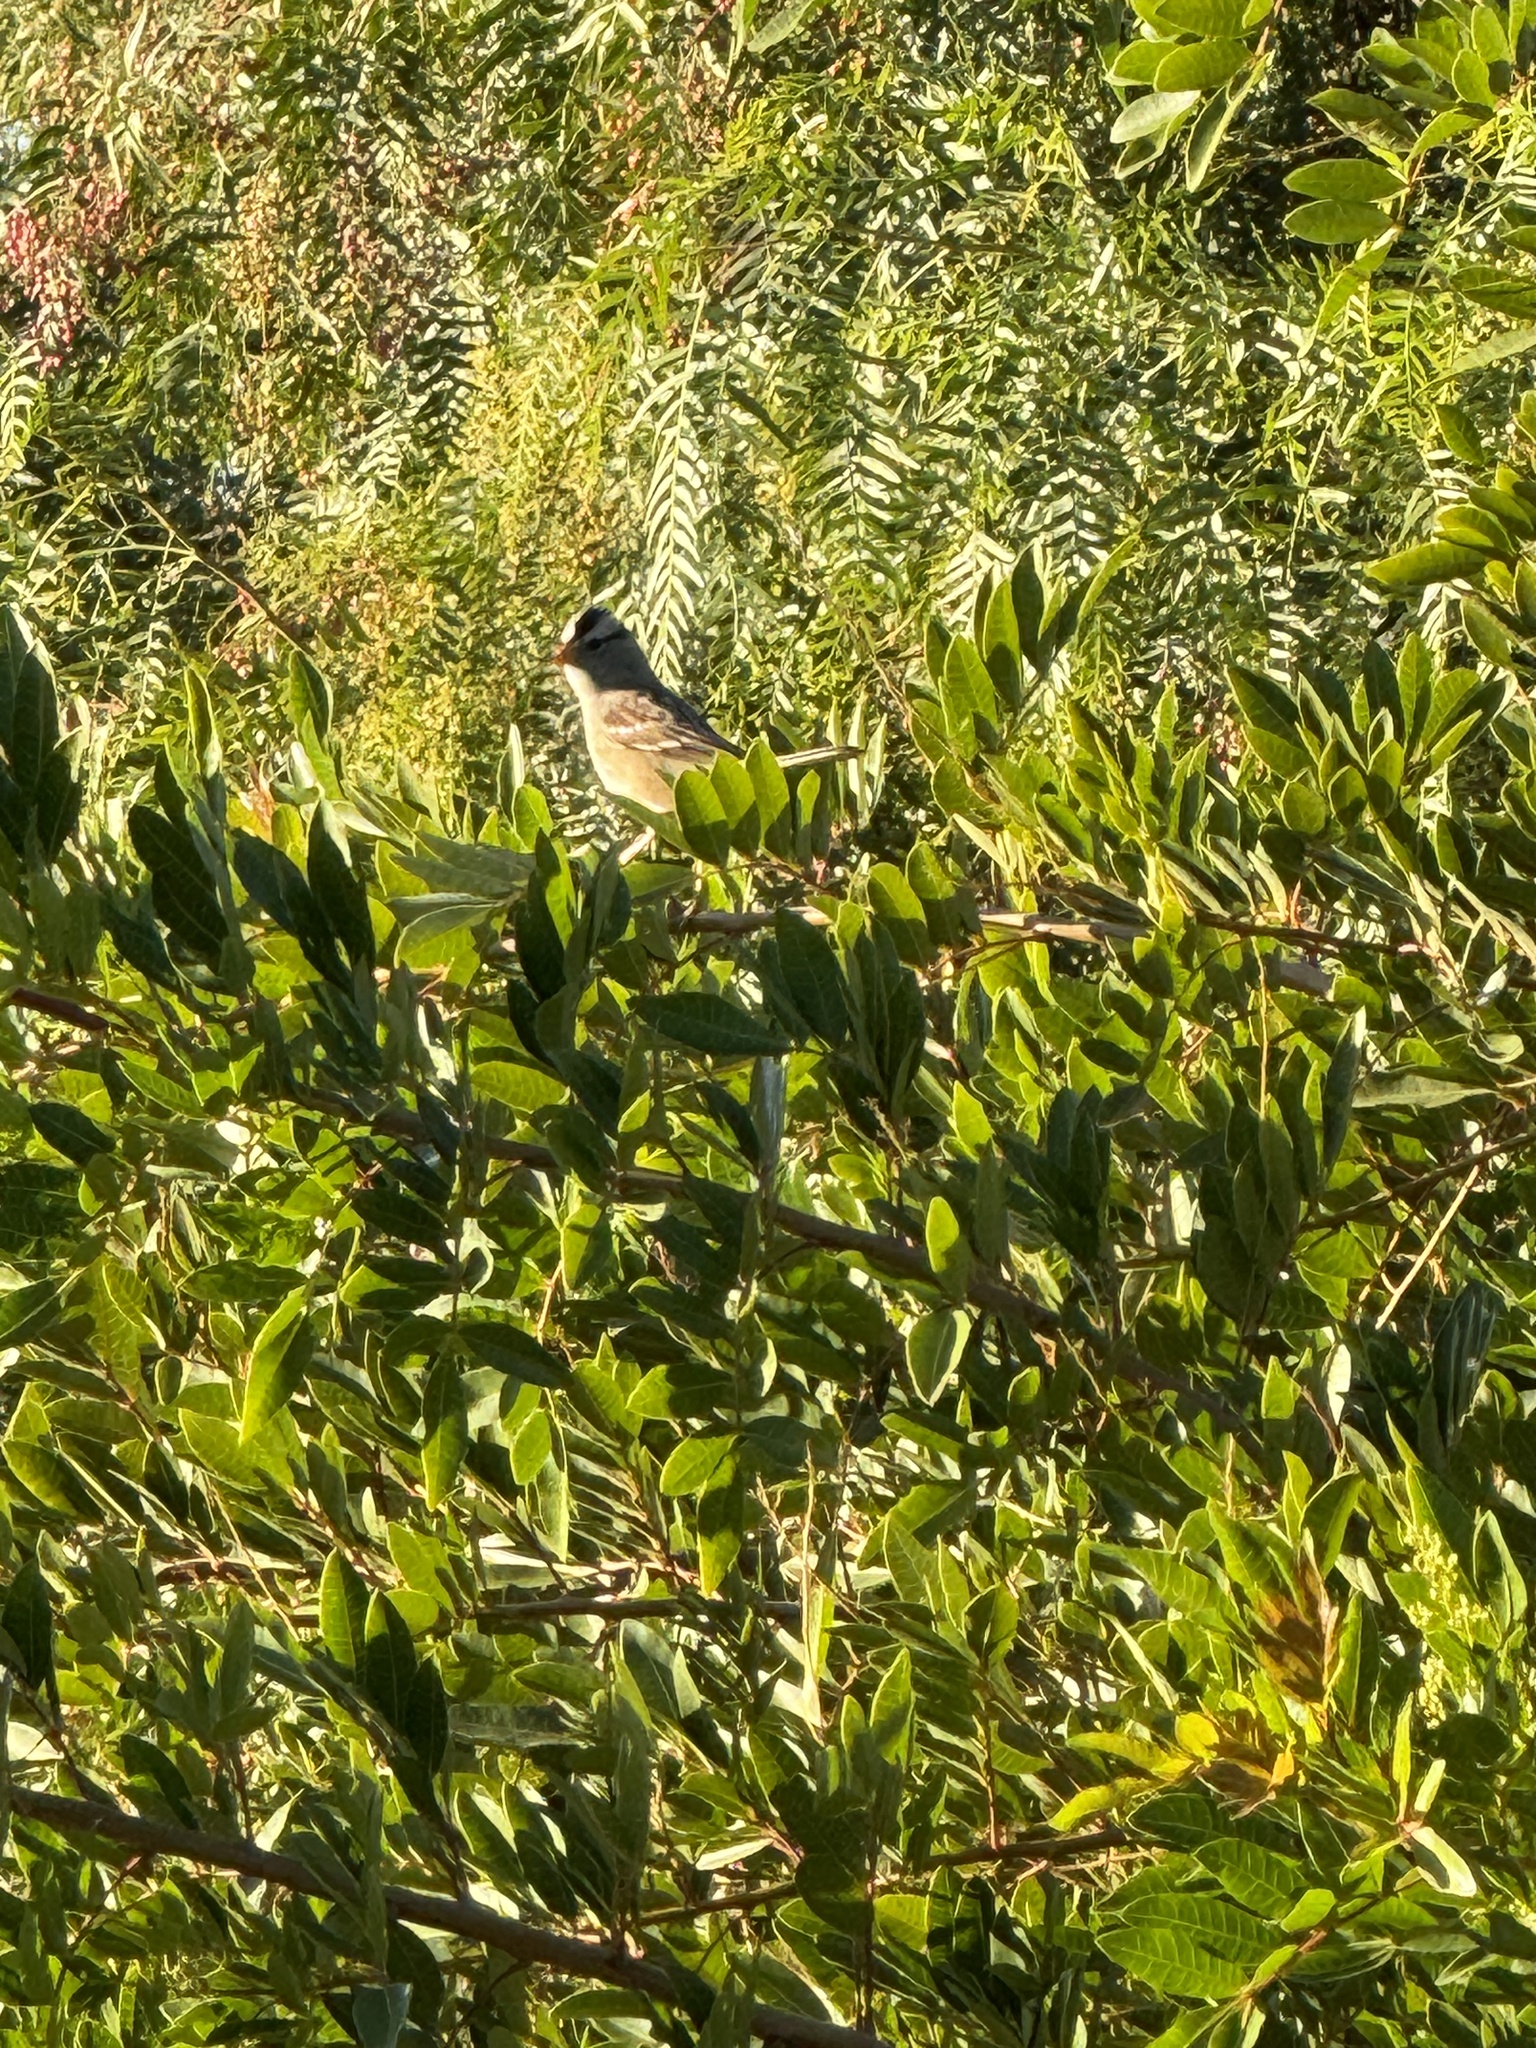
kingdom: Animalia
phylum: Chordata
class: Aves
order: Passeriformes
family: Passerellidae
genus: Zonotrichia
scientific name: Zonotrichia leucophrys
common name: White-crowned sparrow
